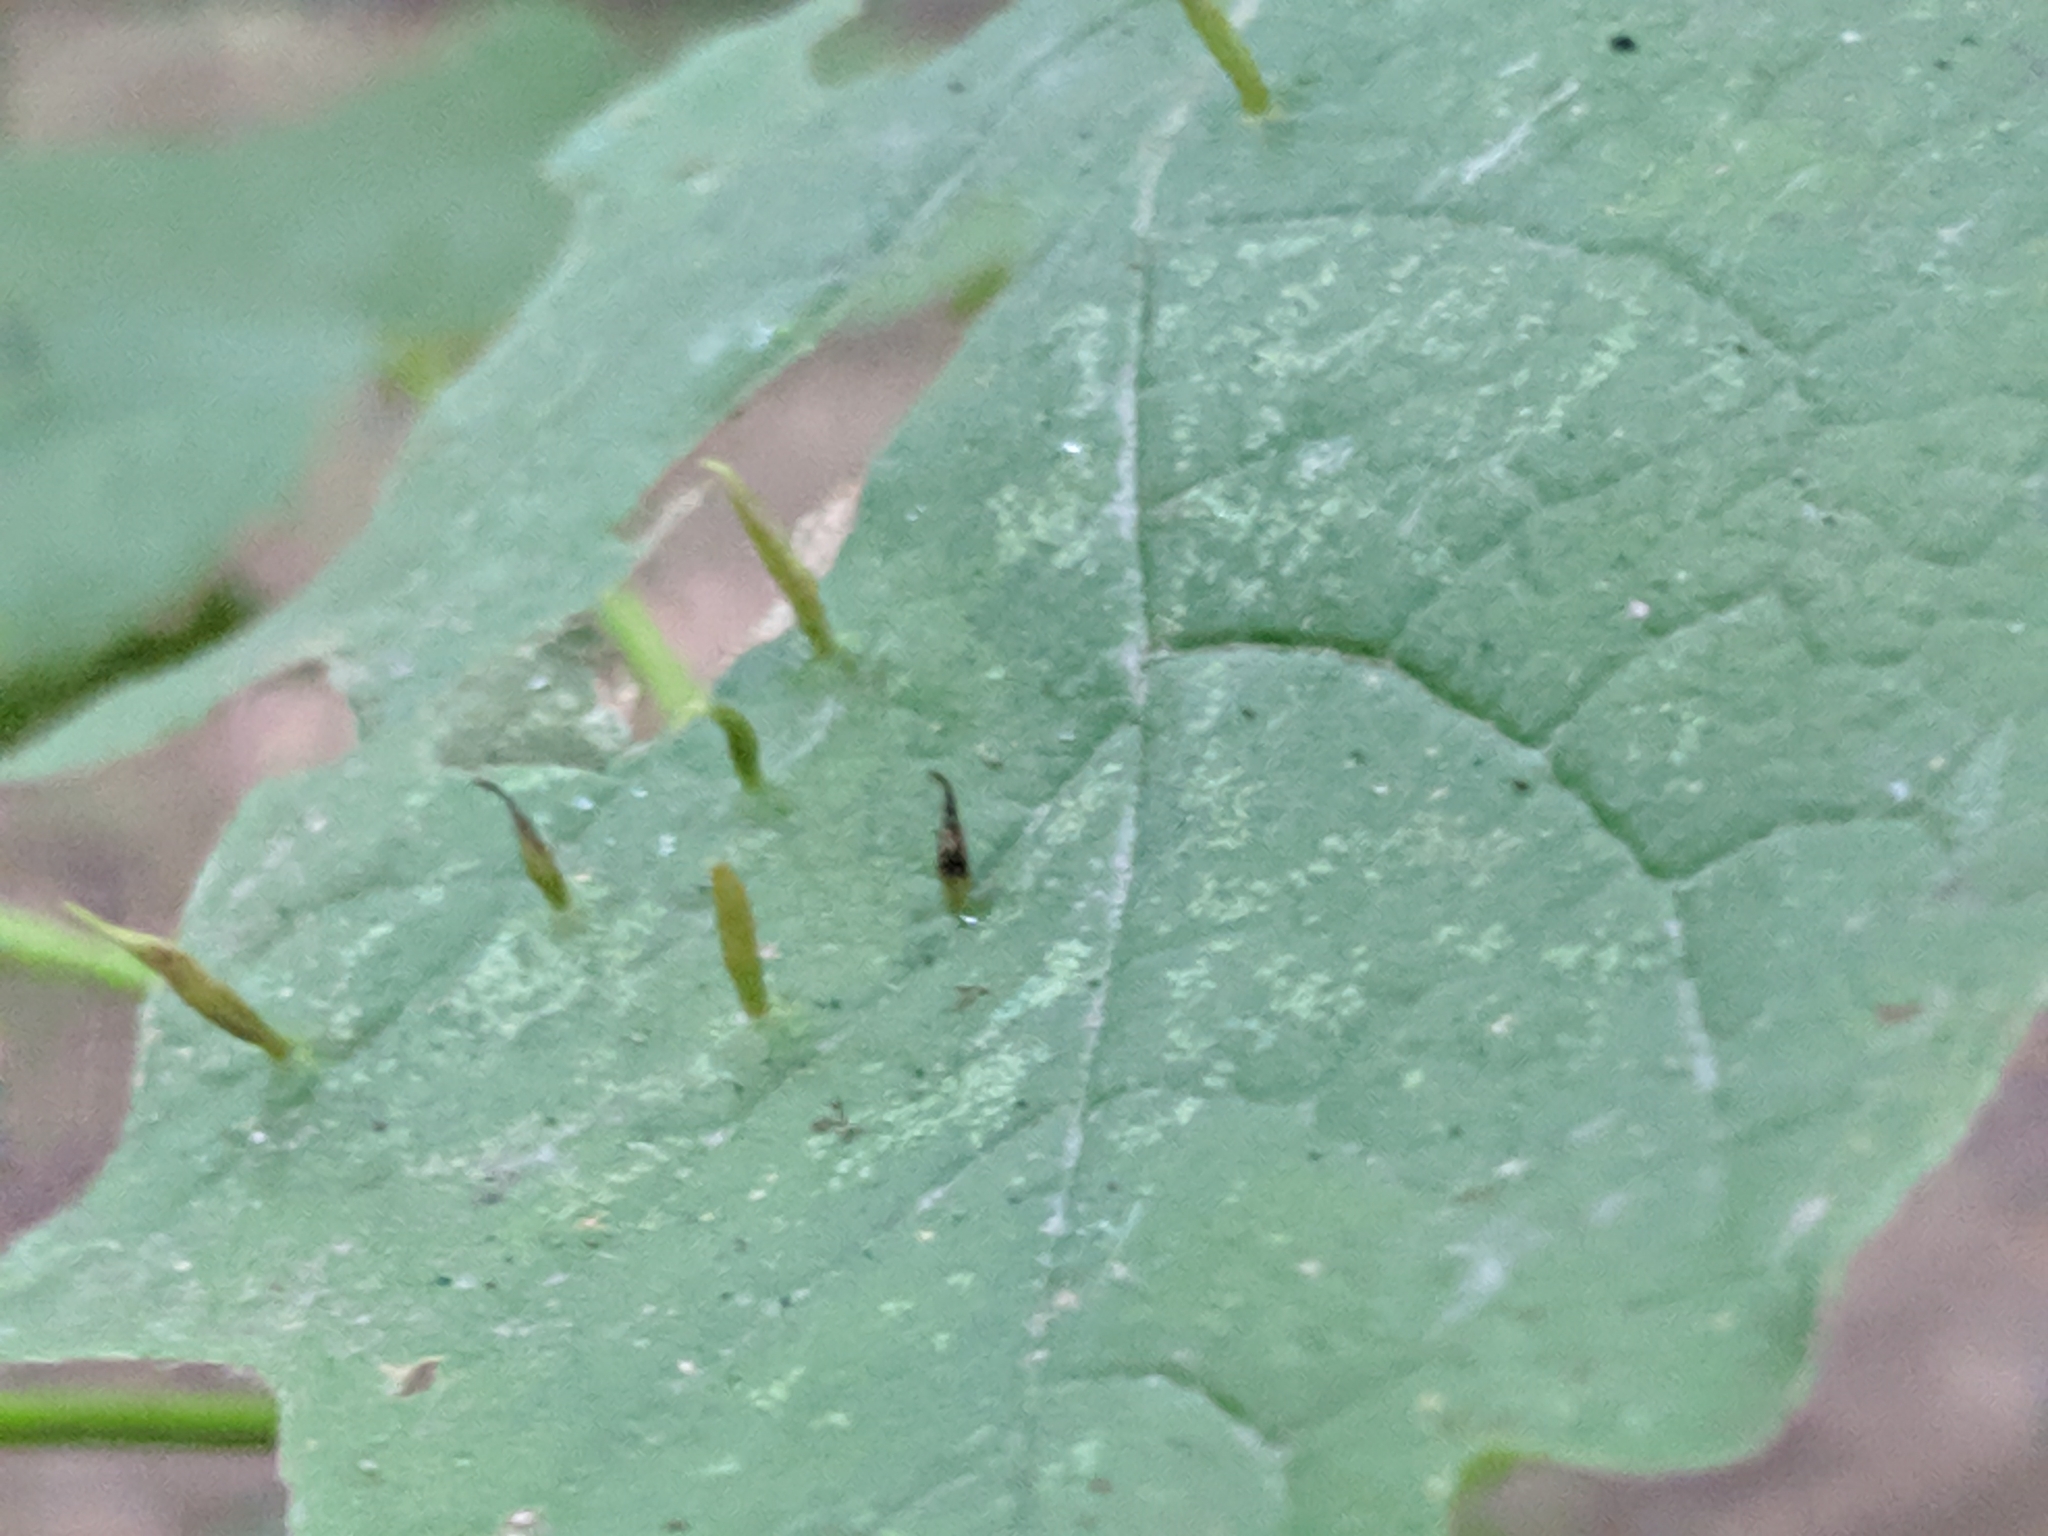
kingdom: Animalia
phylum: Arthropoda
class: Arachnida
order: Trombidiformes
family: Eriophyidae
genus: Vasates
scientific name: Vasates aceriscrumena
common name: Maple spindle gall mite
